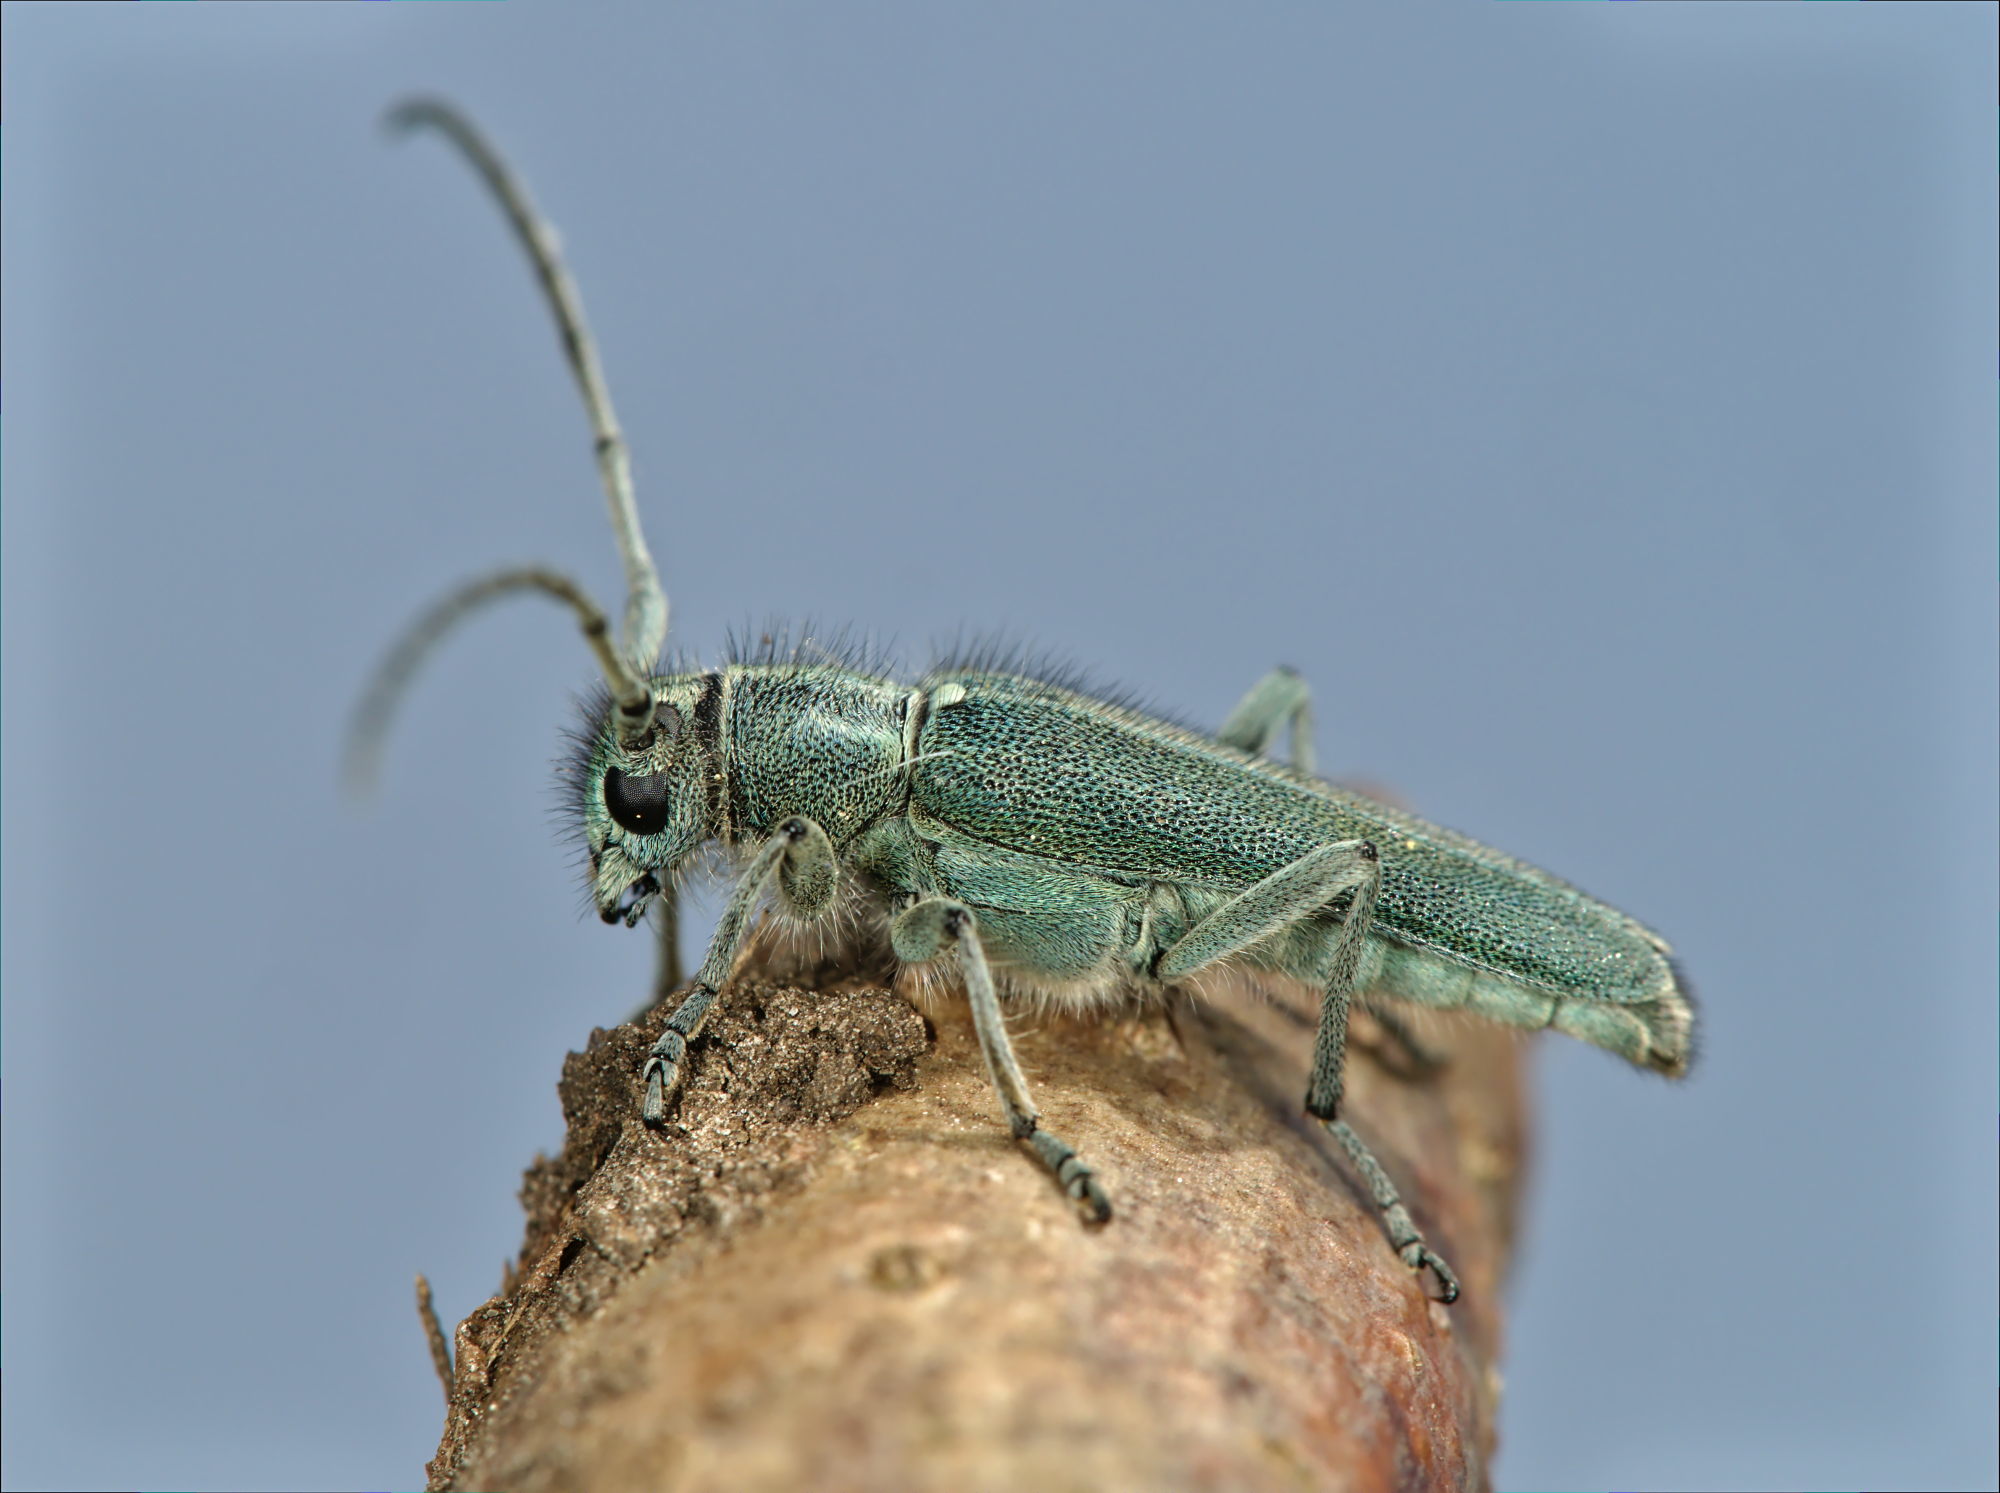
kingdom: Animalia
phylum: Arthropoda
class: Insecta
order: Coleoptera
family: Cerambycidae
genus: Phytoecia
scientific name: Phytoecia coerulescens
